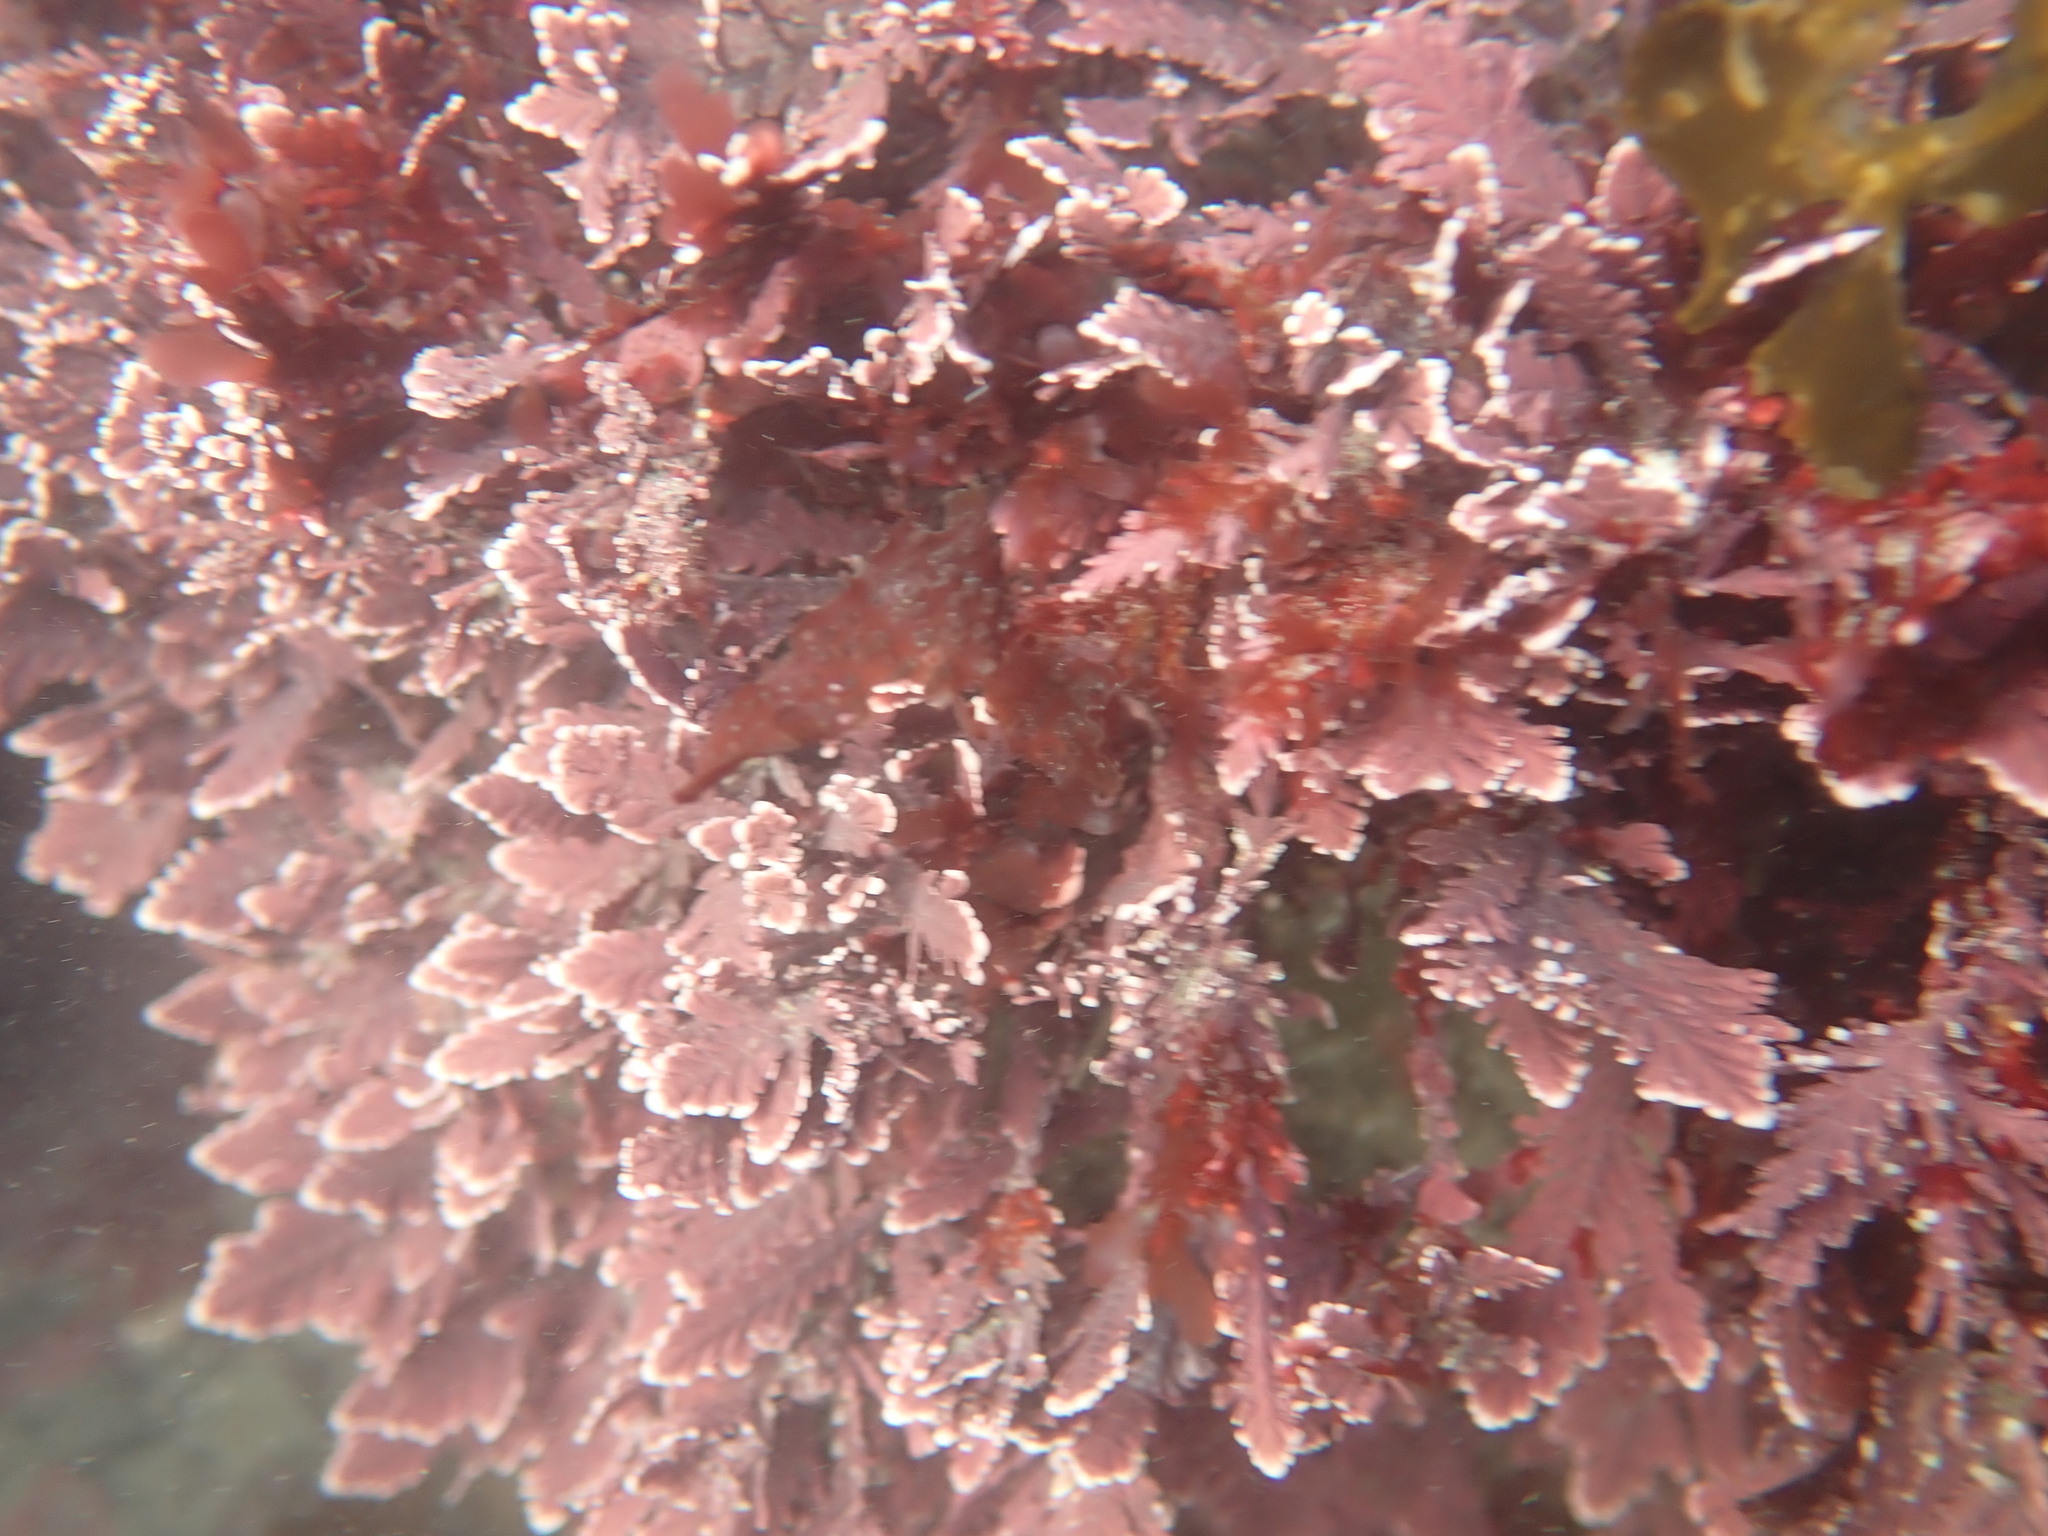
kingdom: Plantae
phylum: Rhodophyta
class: Florideophyceae
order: Corallinales
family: Corallinaceae
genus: Arthrocardia
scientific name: Arthrocardia corymbosa
